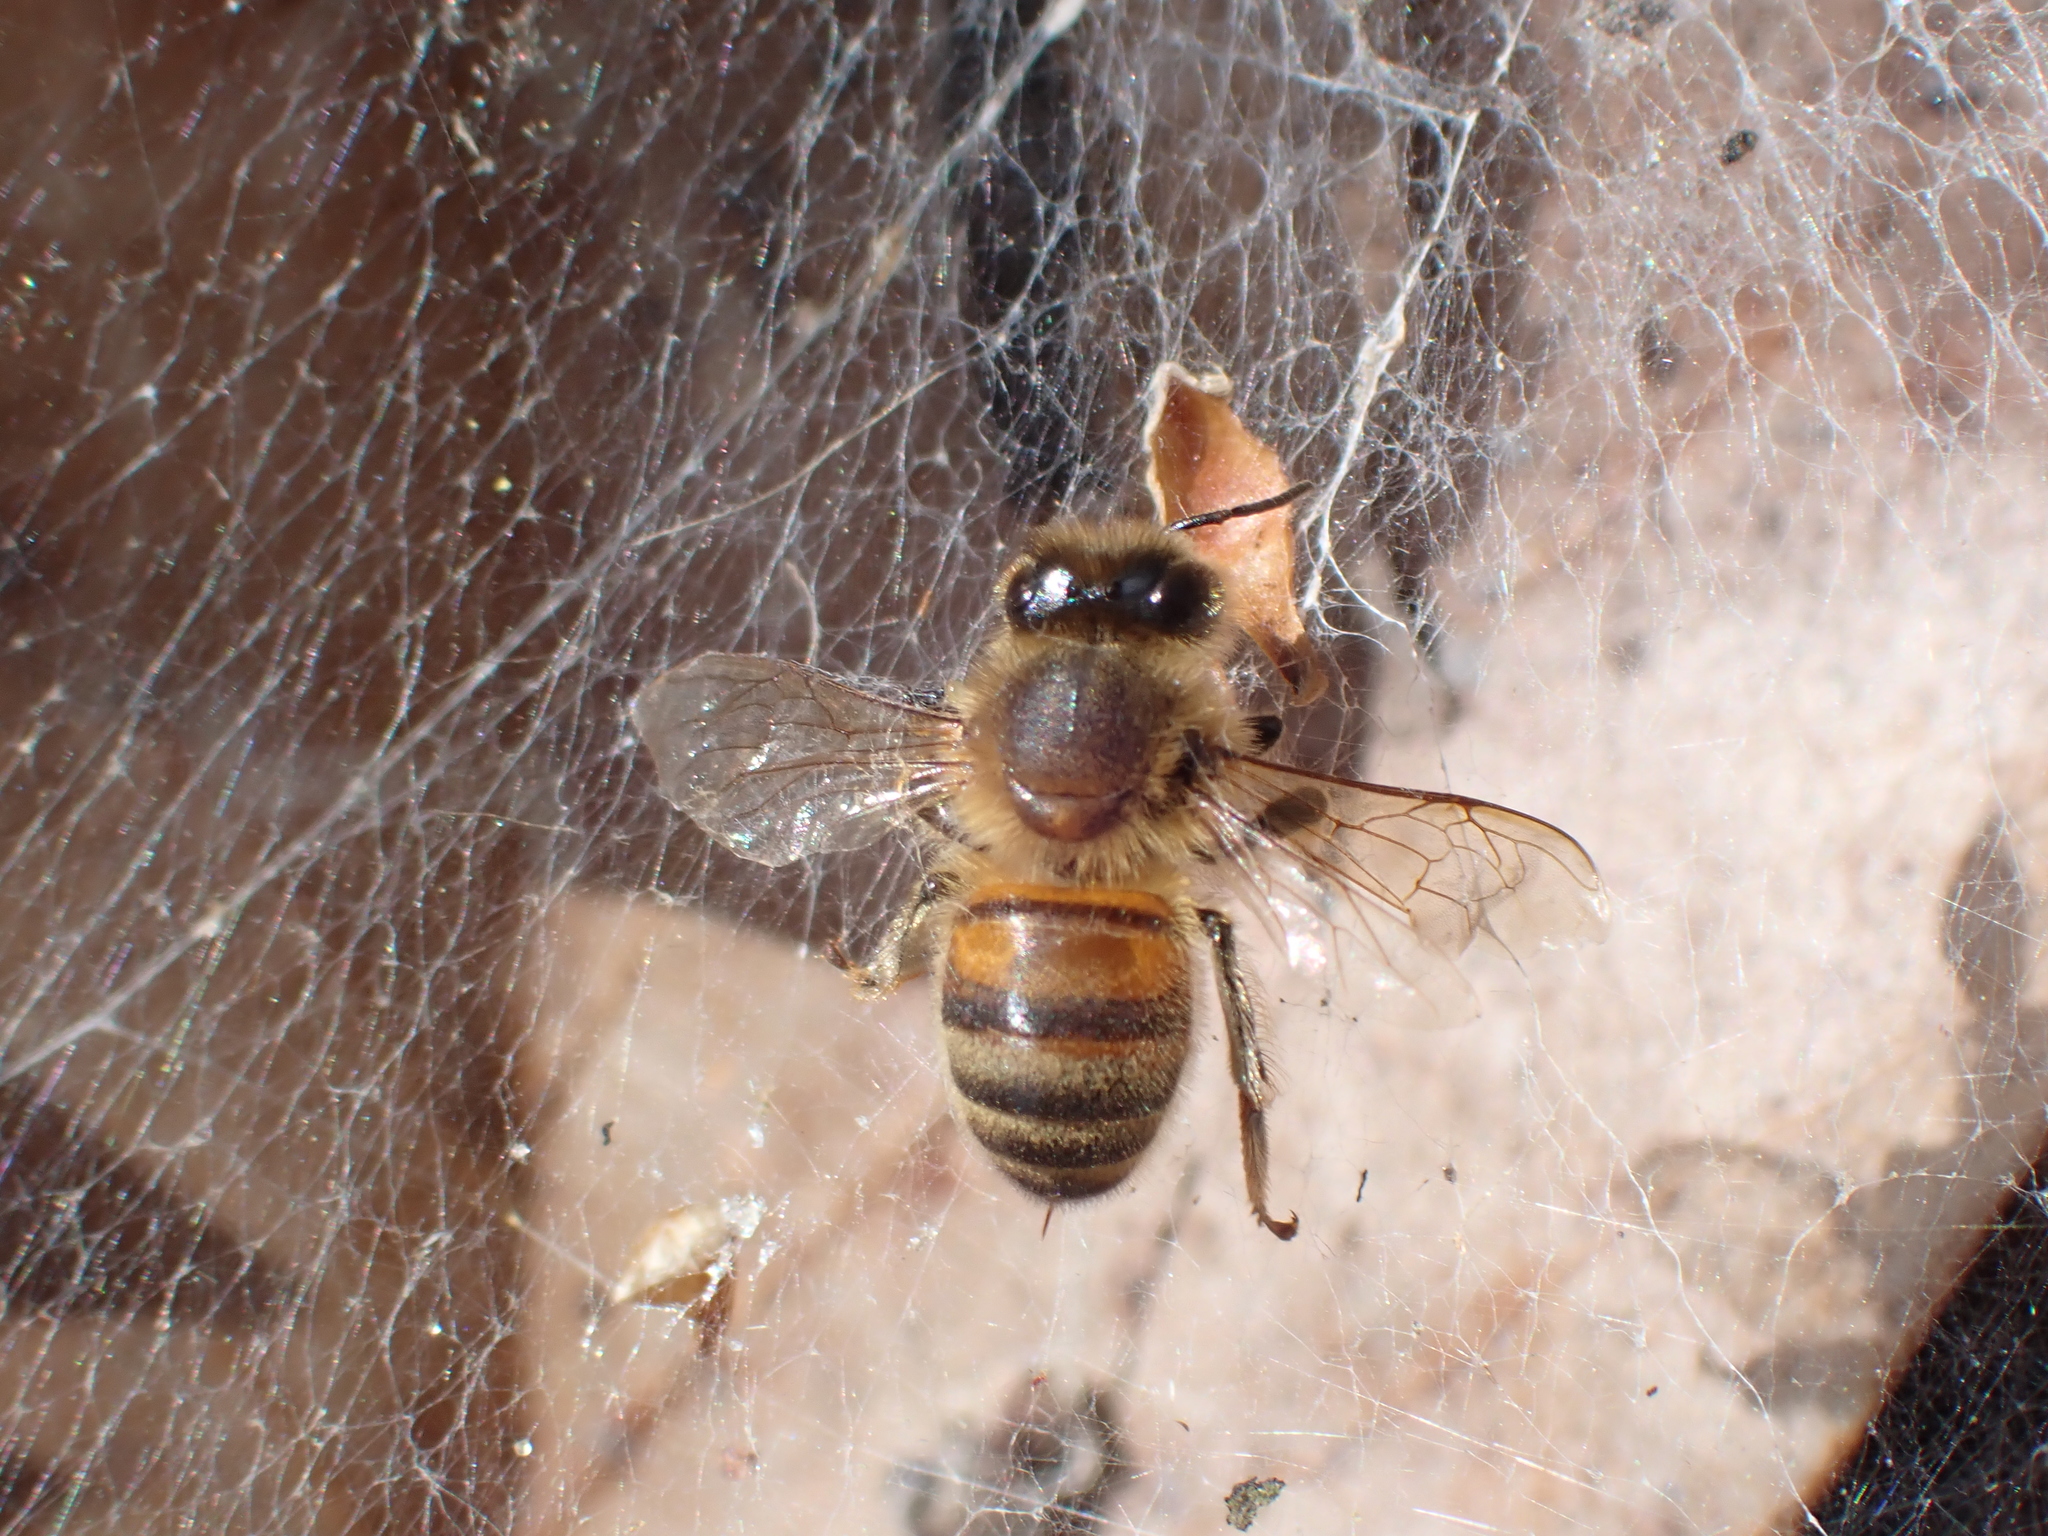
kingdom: Animalia
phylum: Arthropoda
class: Insecta
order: Hymenoptera
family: Apidae
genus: Apis
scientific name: Apis mellifera
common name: Honey bee
